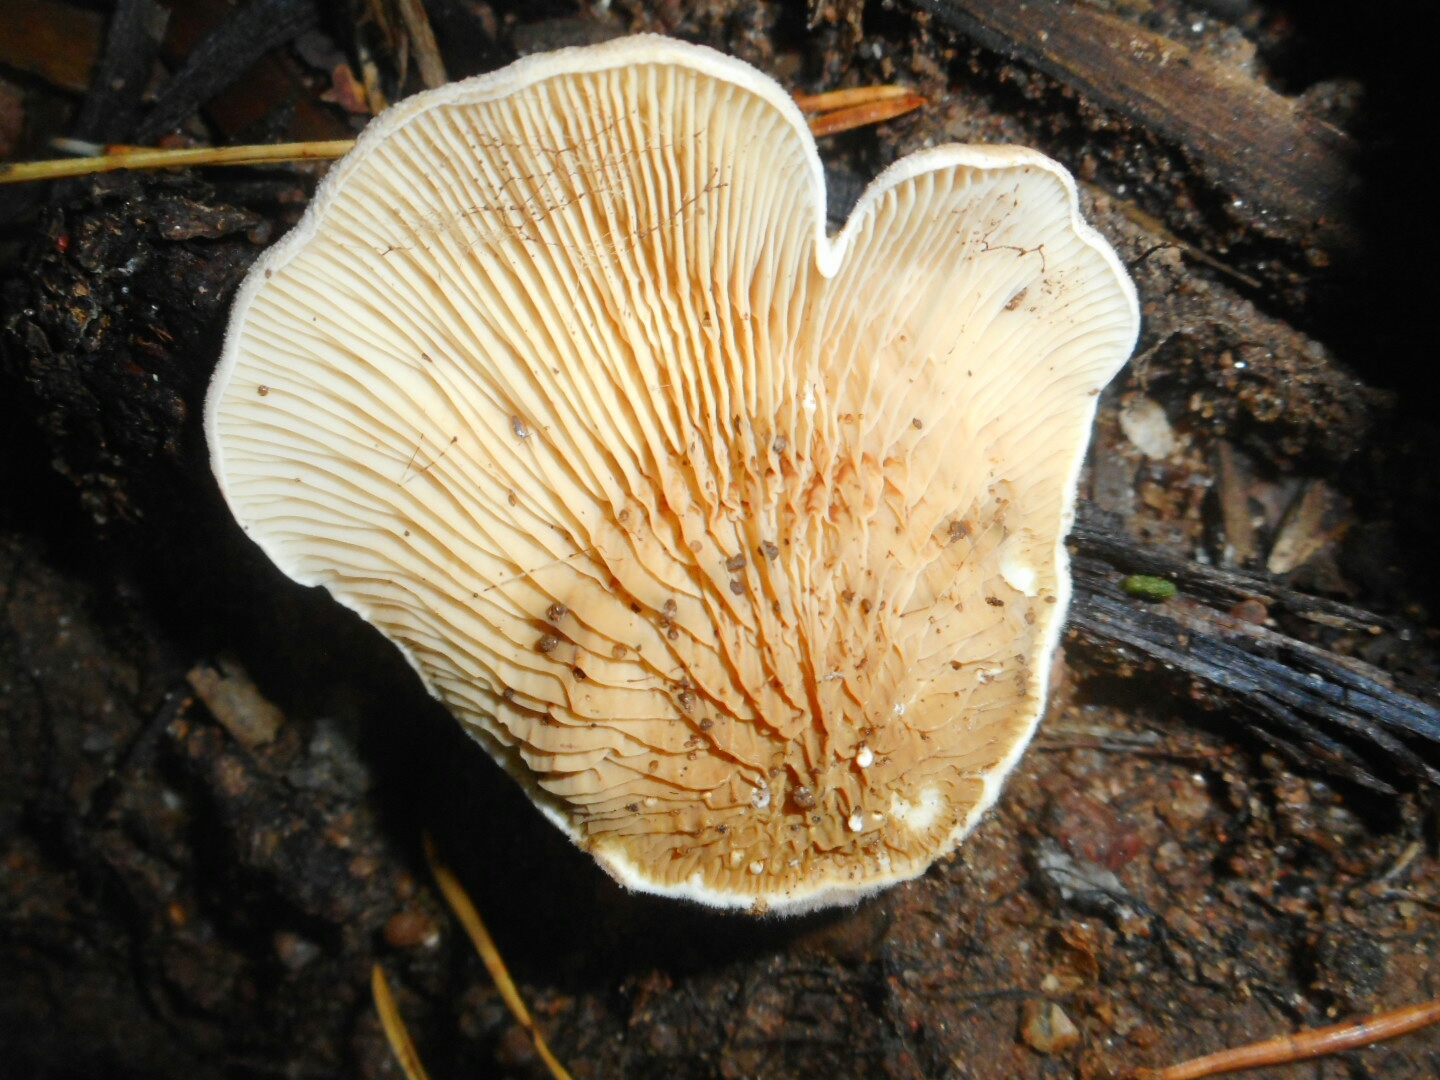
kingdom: Fungi
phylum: Basidiomycota
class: Agaricomycetes
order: Boletales
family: Tapinellaceae
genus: Tapinella
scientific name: Tapinella panuoides
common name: Oyster rollrim
